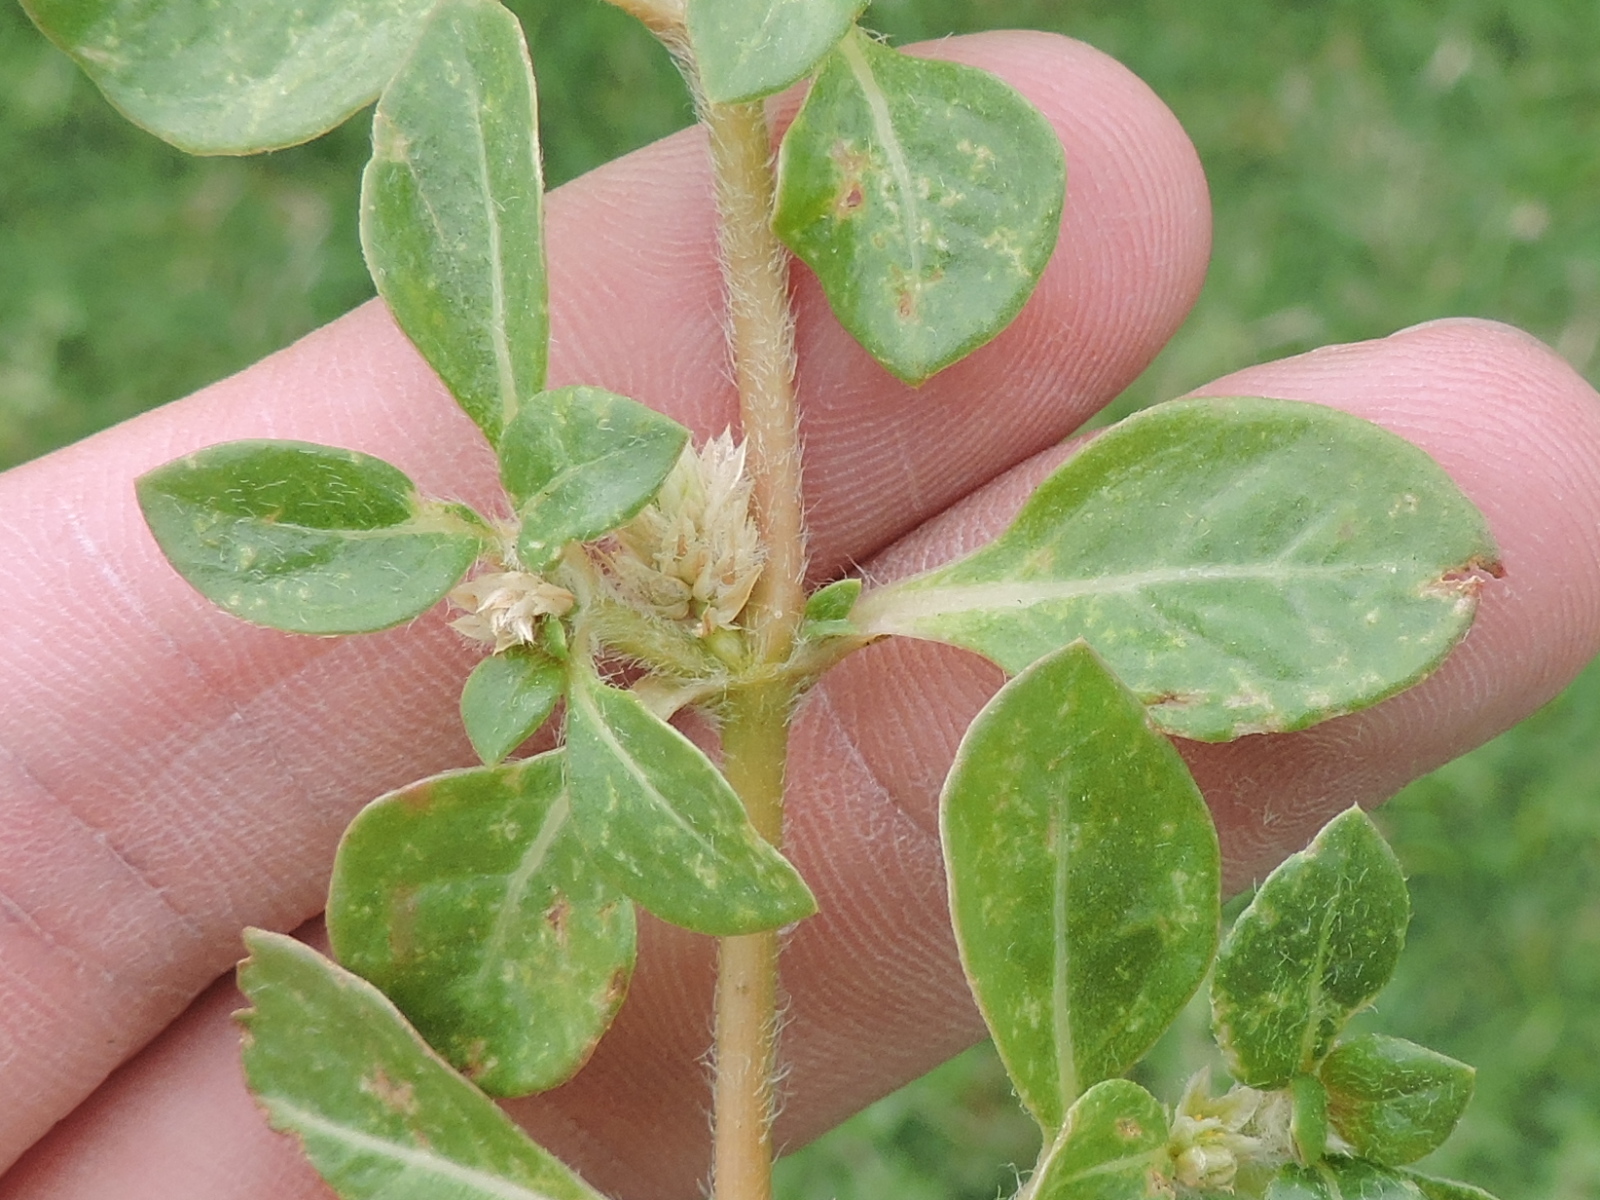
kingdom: Plantae
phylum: Tracheophyta
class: Magnoliopsida
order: Caryophyllales
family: Amaranthaceae
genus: Alternanthera
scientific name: Alternanthera caracasana
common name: Washerwoman
